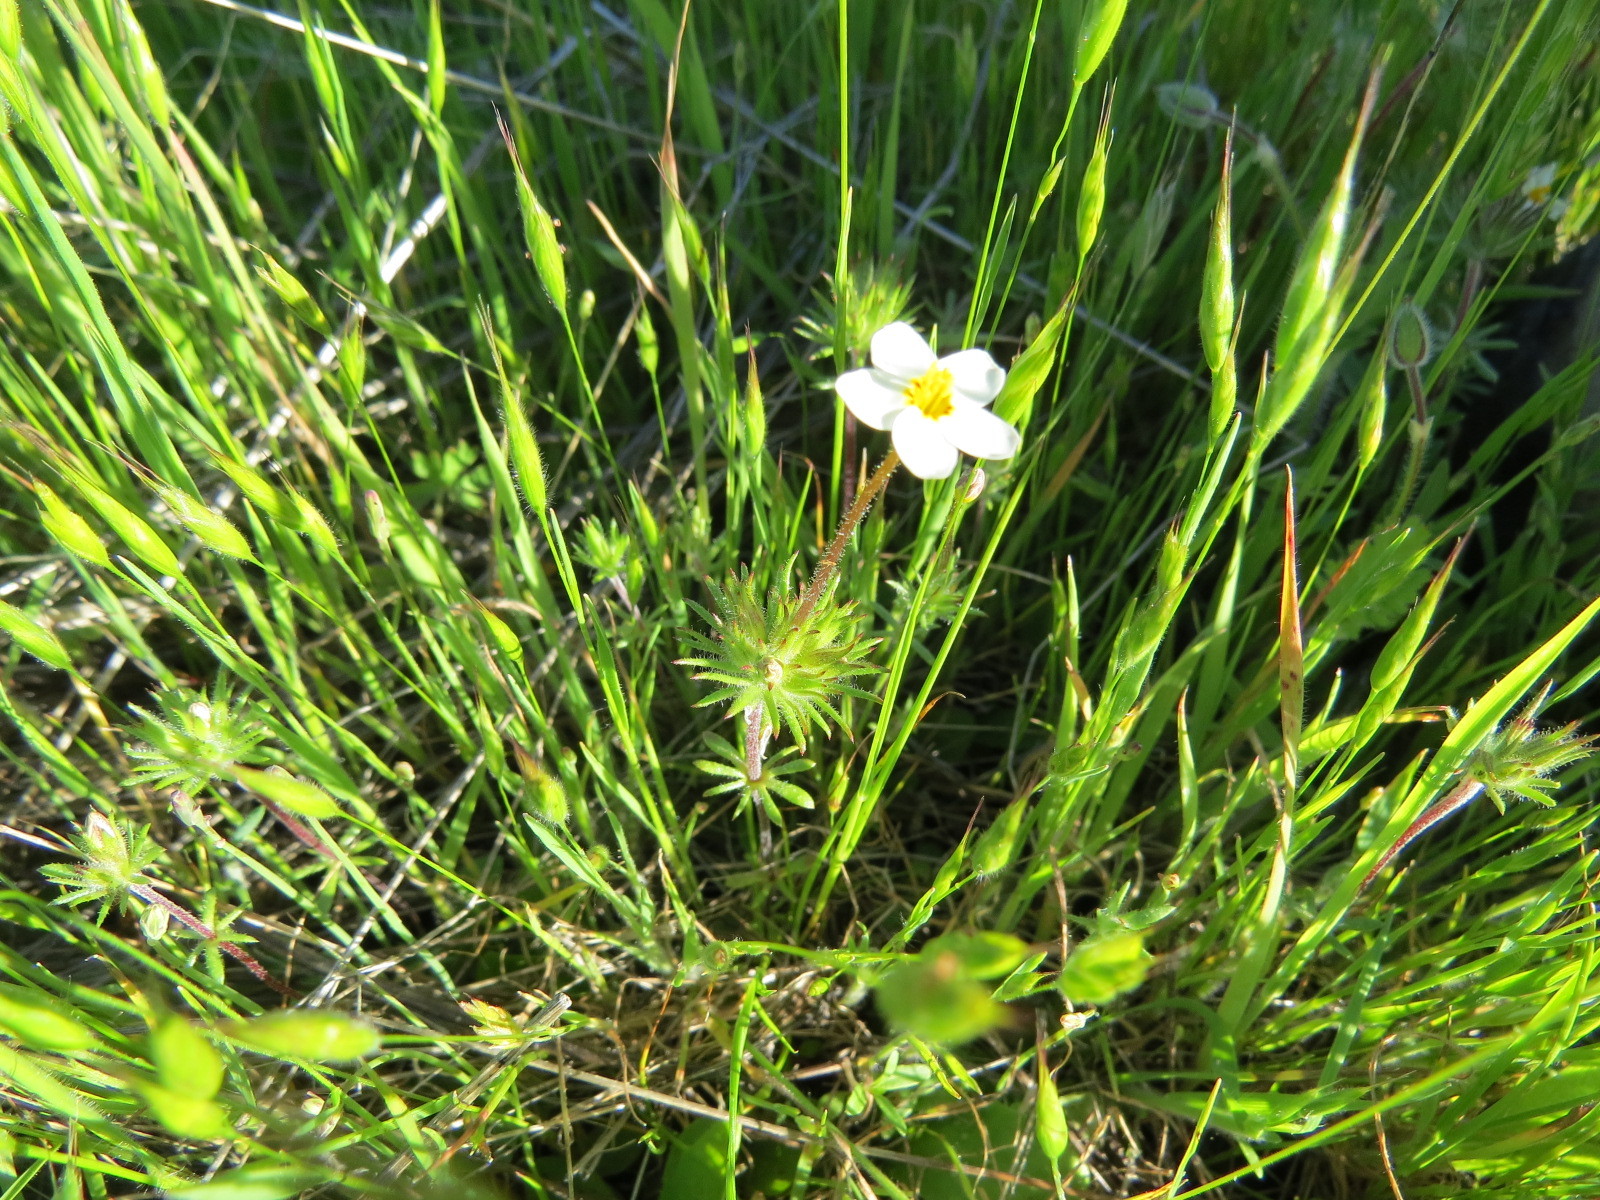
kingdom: Plantae
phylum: Tracheophyta
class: Magnoliopsida
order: Ericales
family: Polemoniaceae
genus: Leptosiphon
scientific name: Leptosiphon parviflorus
